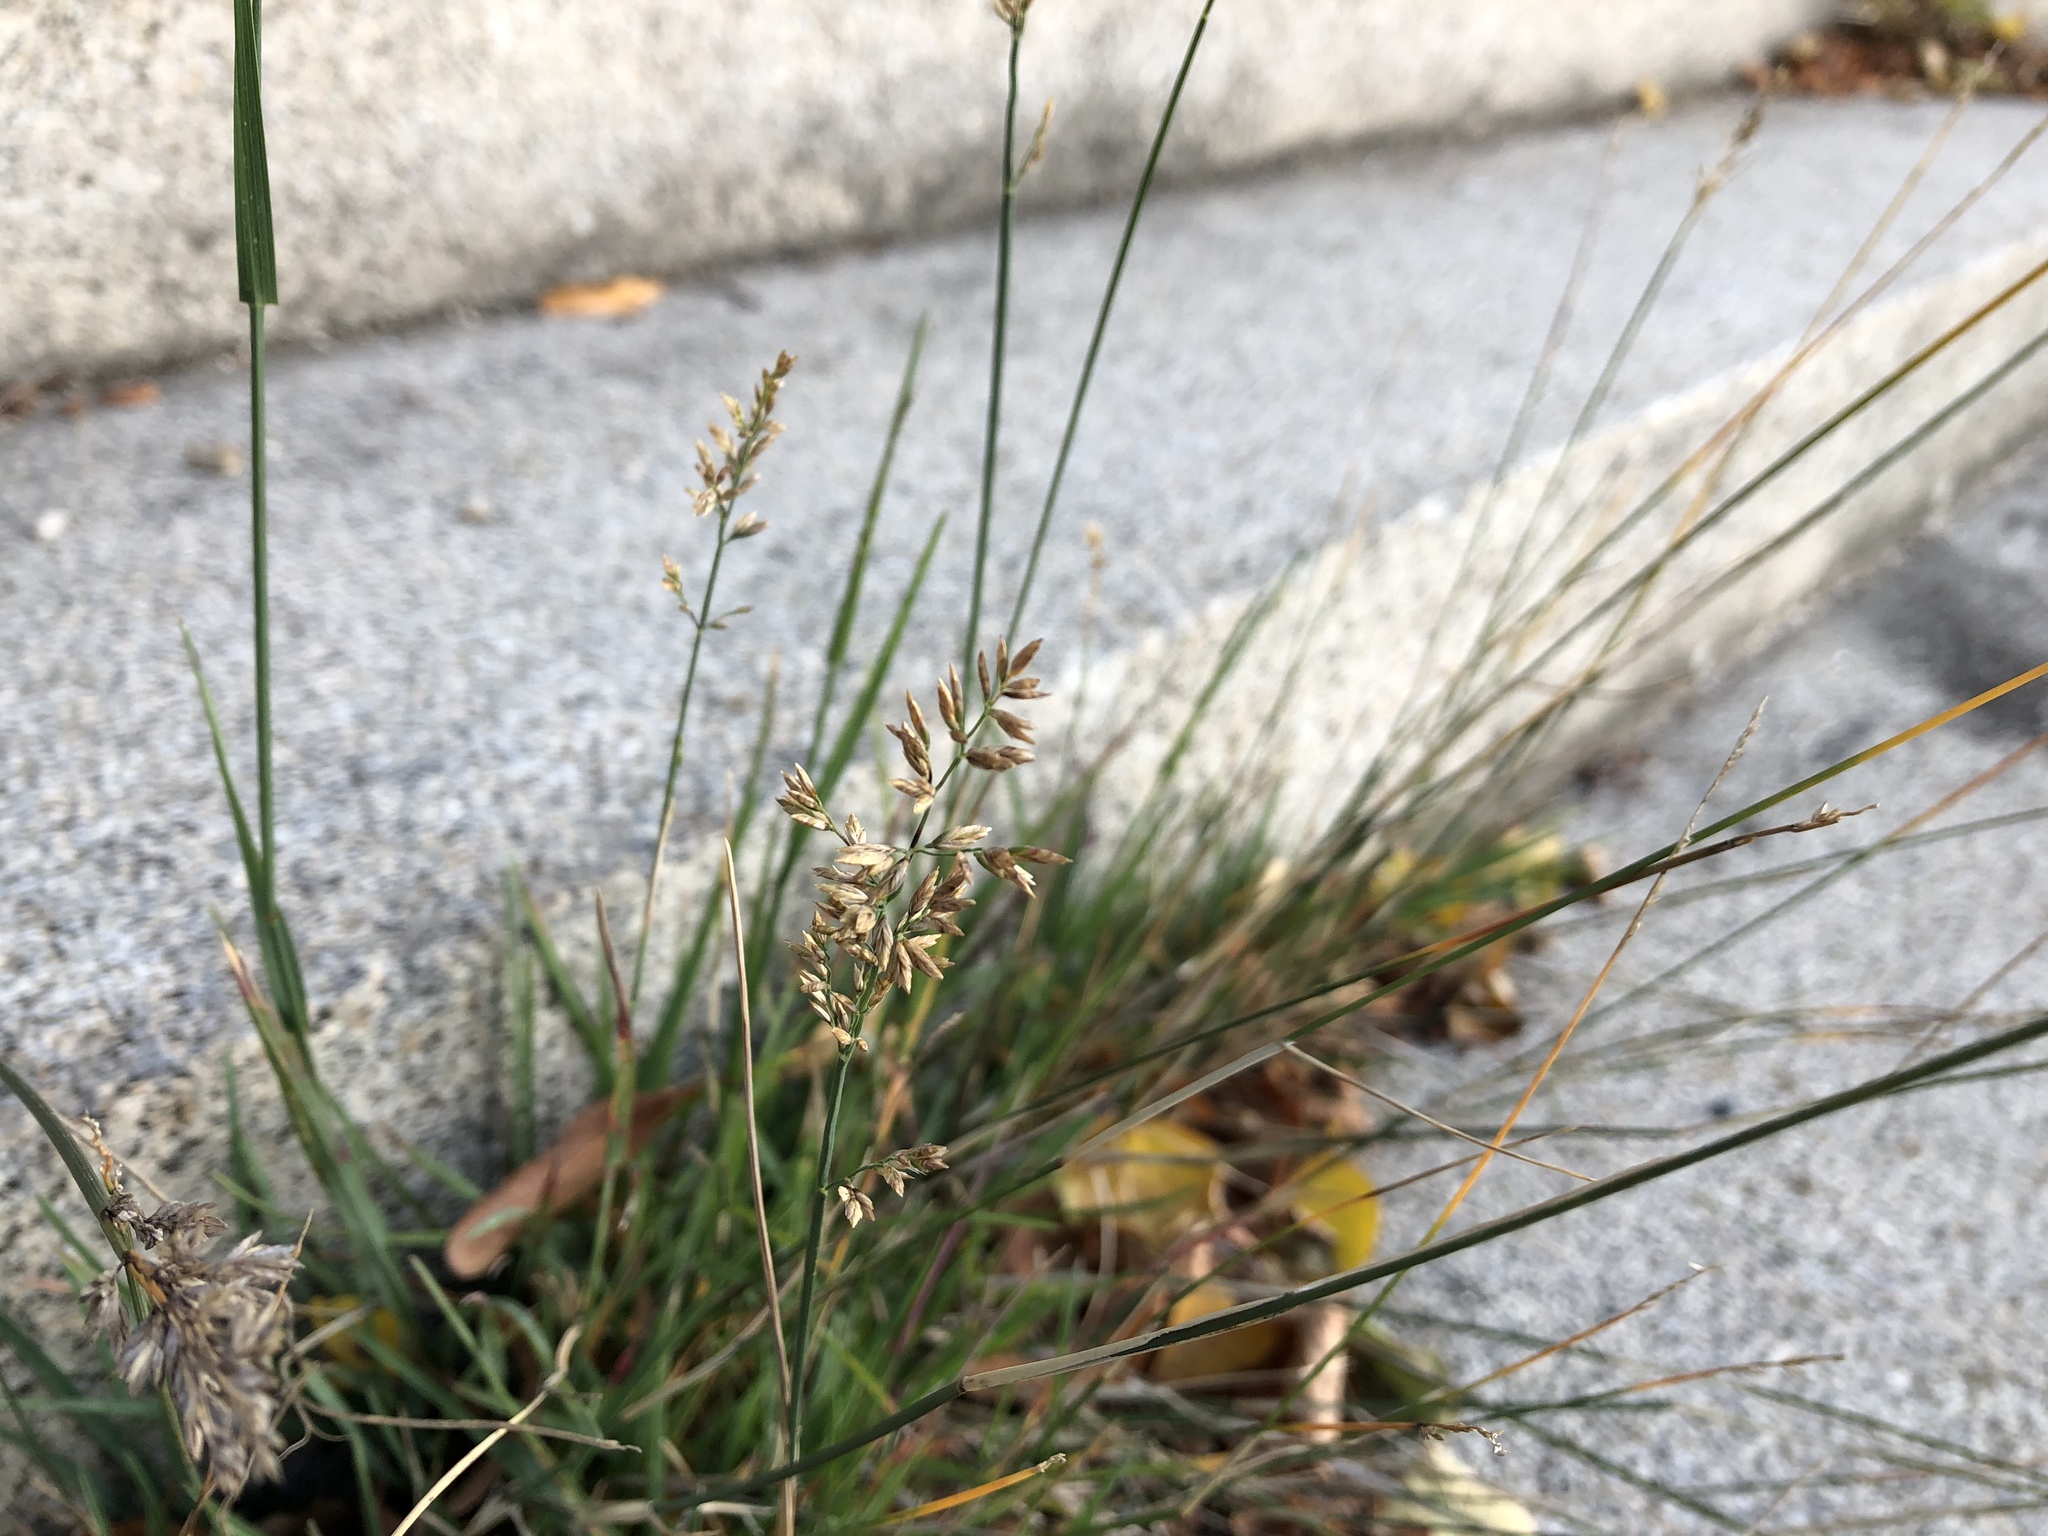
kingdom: Plantae
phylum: Tracheophyta
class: Liliopsida
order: Poales
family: Poaceae
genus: Poa
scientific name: Poa compressa
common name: Canada bluegrass
